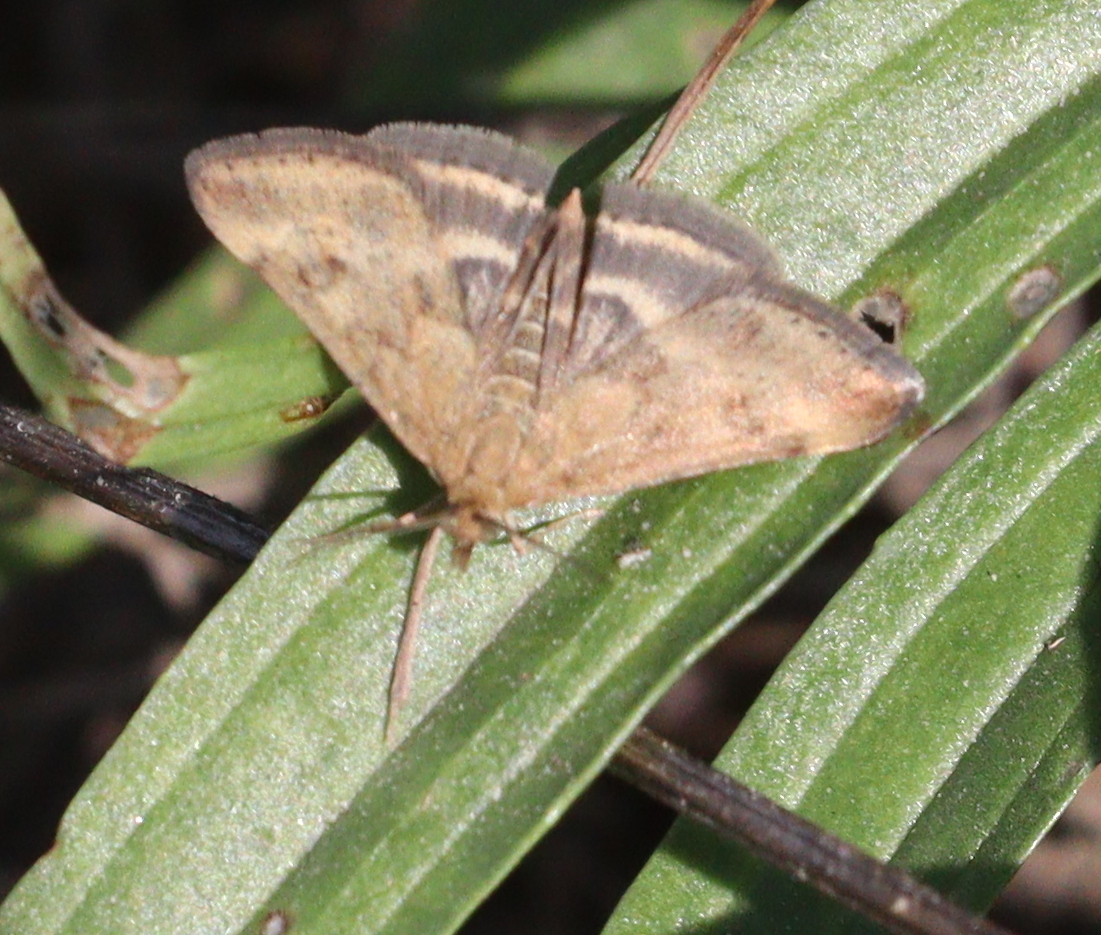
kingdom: Animalia
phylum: Arthropoda
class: Insecta
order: Lepidoptera
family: Crambidae
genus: Pyrausta
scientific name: Pyrausta despicata
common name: Straw-barred pearl
